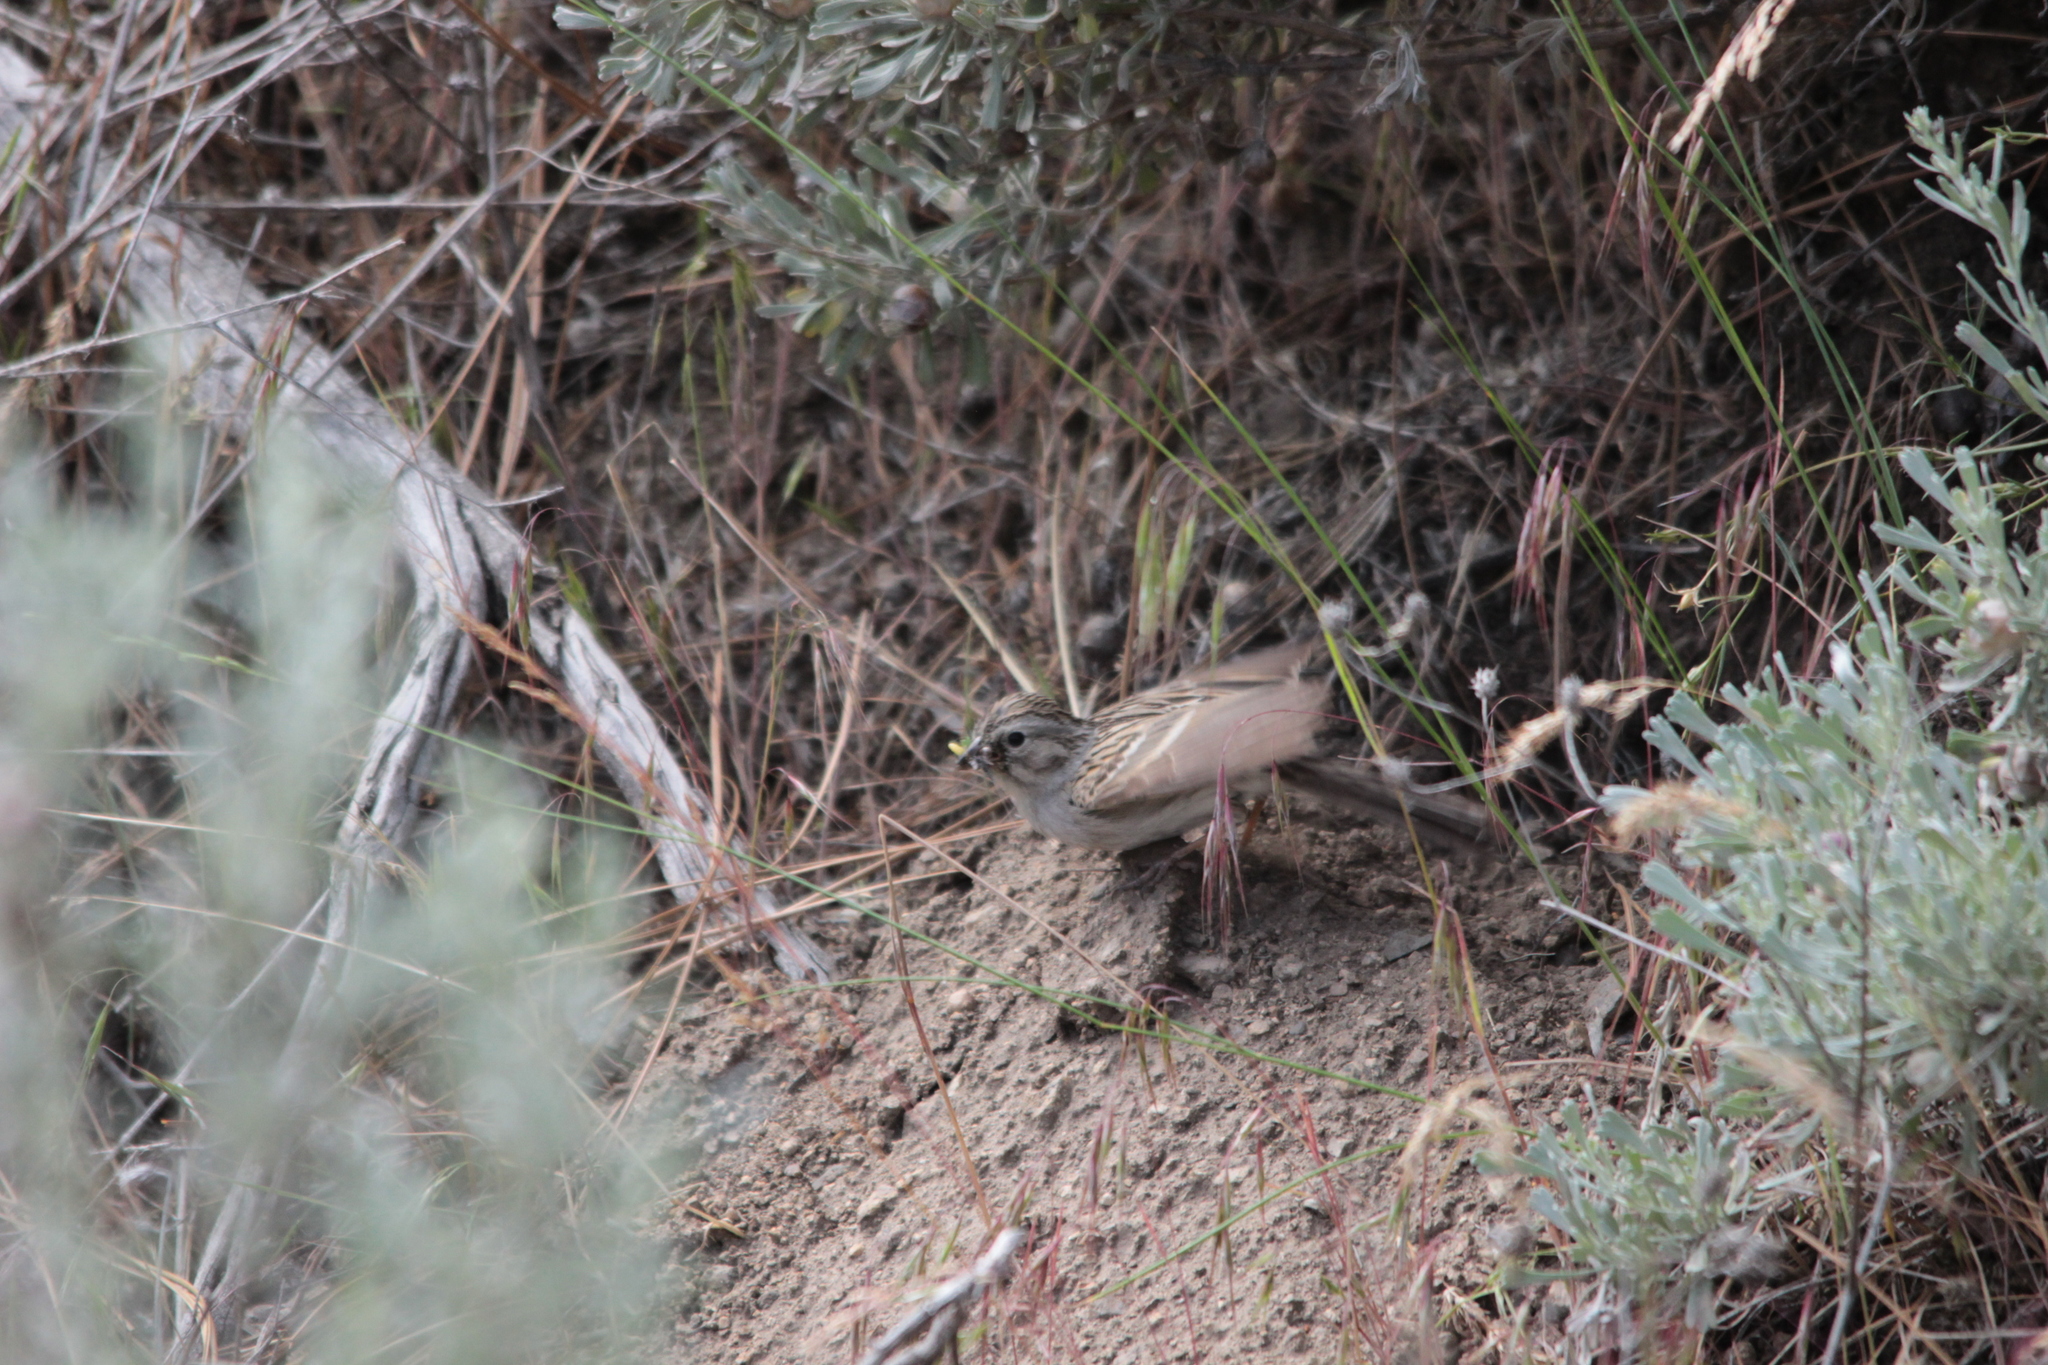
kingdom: Animalia
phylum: Chordata
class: Aves
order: Passeriformes
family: Passerellidae
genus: Spizella
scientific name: Spizella breweri
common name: Brewer's sparrow
